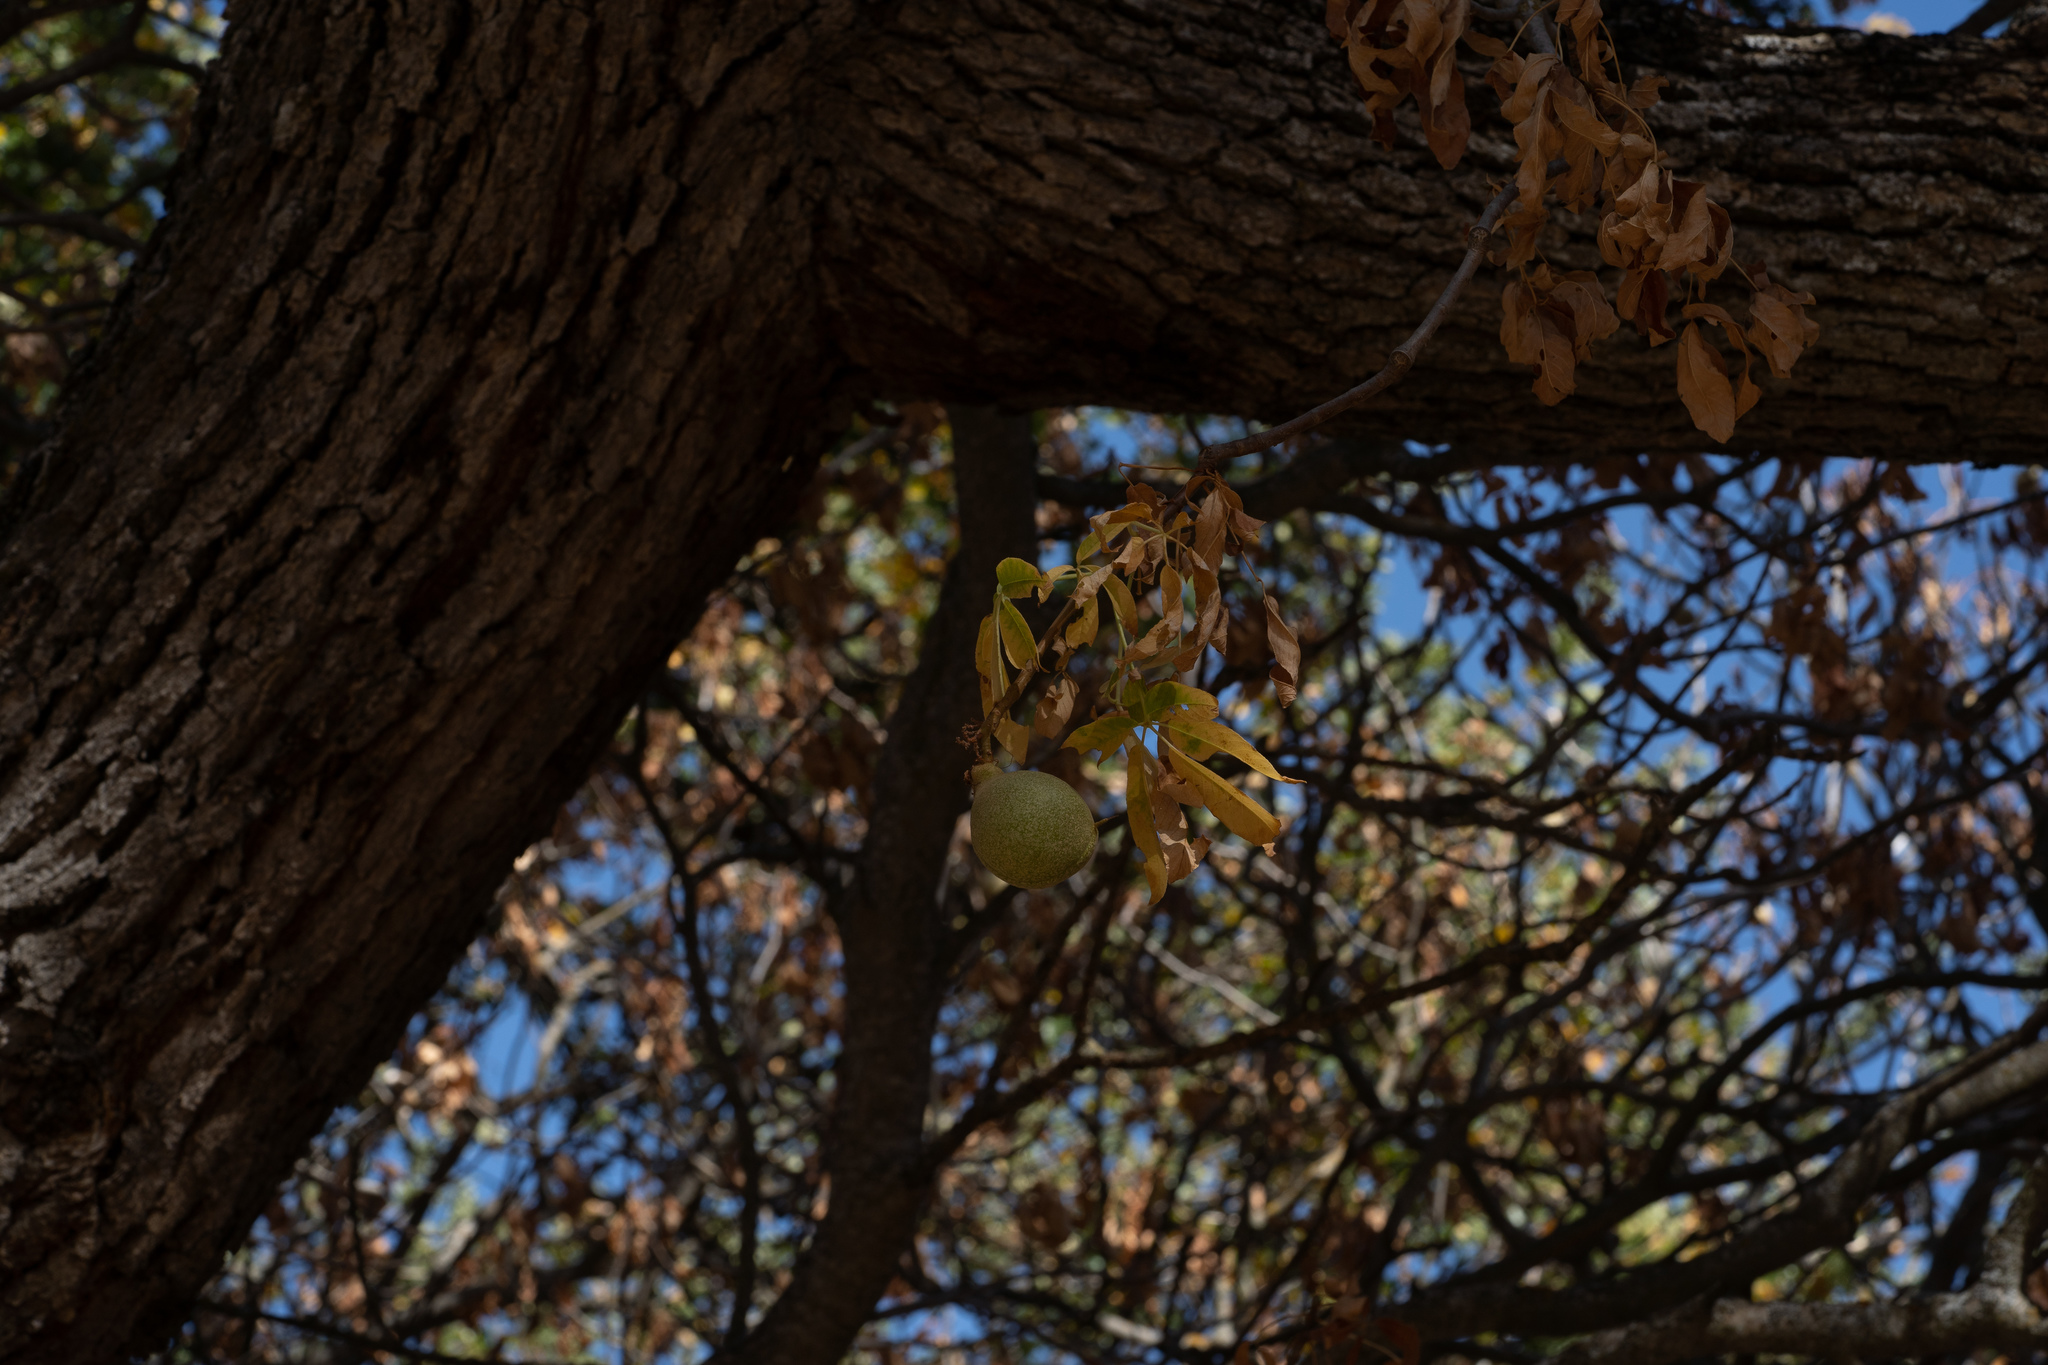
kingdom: Plantae
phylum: Tracheophyta
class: Magnoliopsida
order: Sapindales
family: Sapindaceae
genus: Aesculus
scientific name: Aesculus californica
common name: California buckeye
